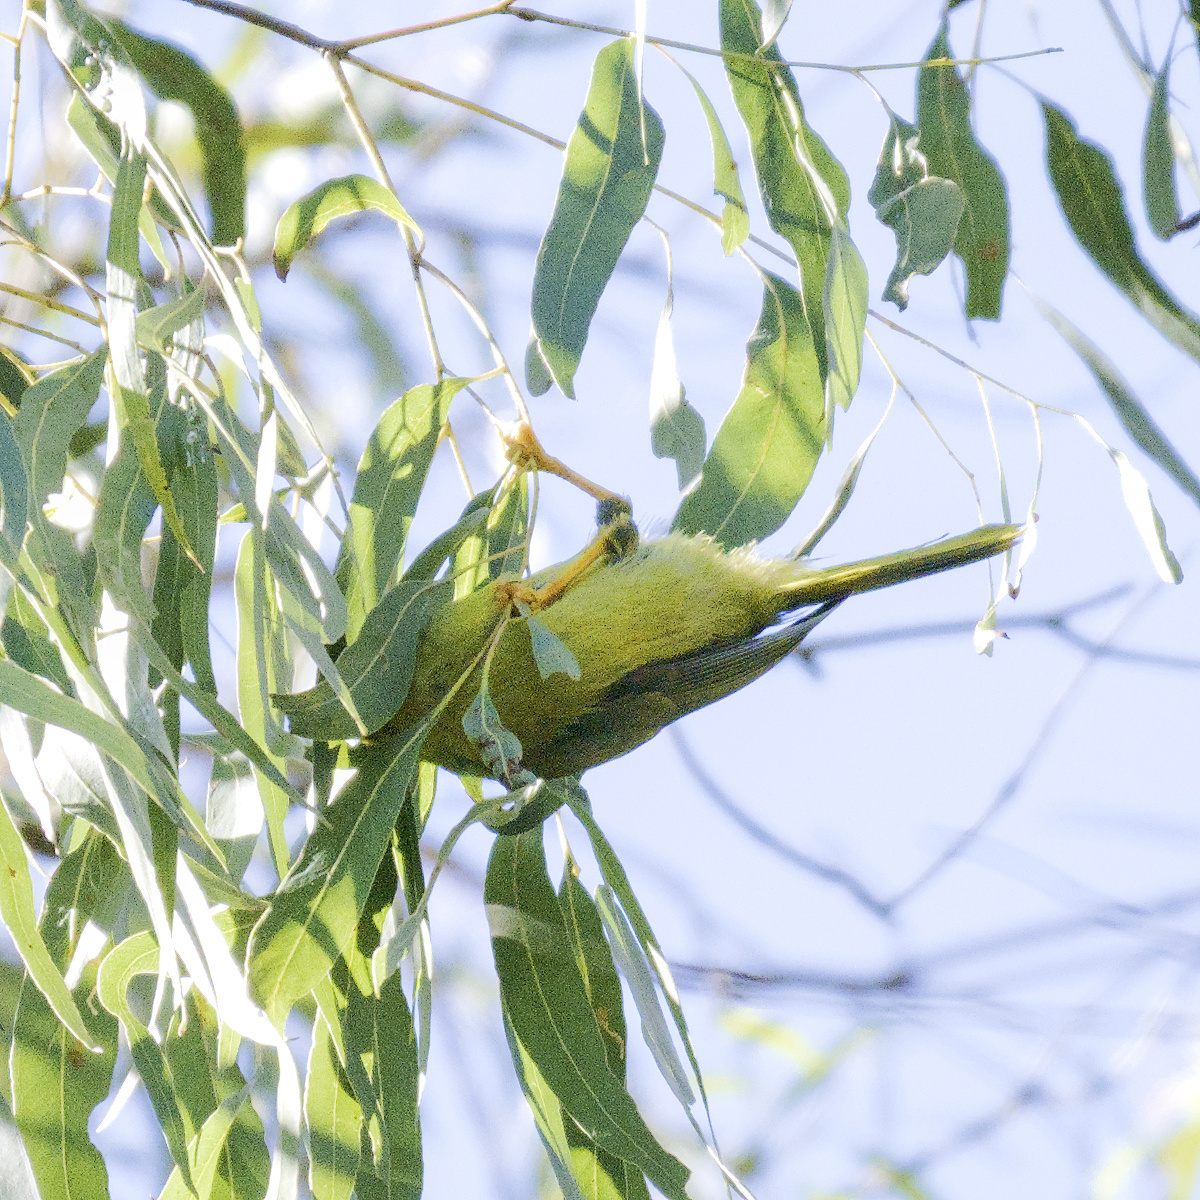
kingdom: Animalia
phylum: Chordata
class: Aves
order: Passeriformes
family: Meliphagidae
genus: Manorina
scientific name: Manorina melanophrys
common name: Bell miner
